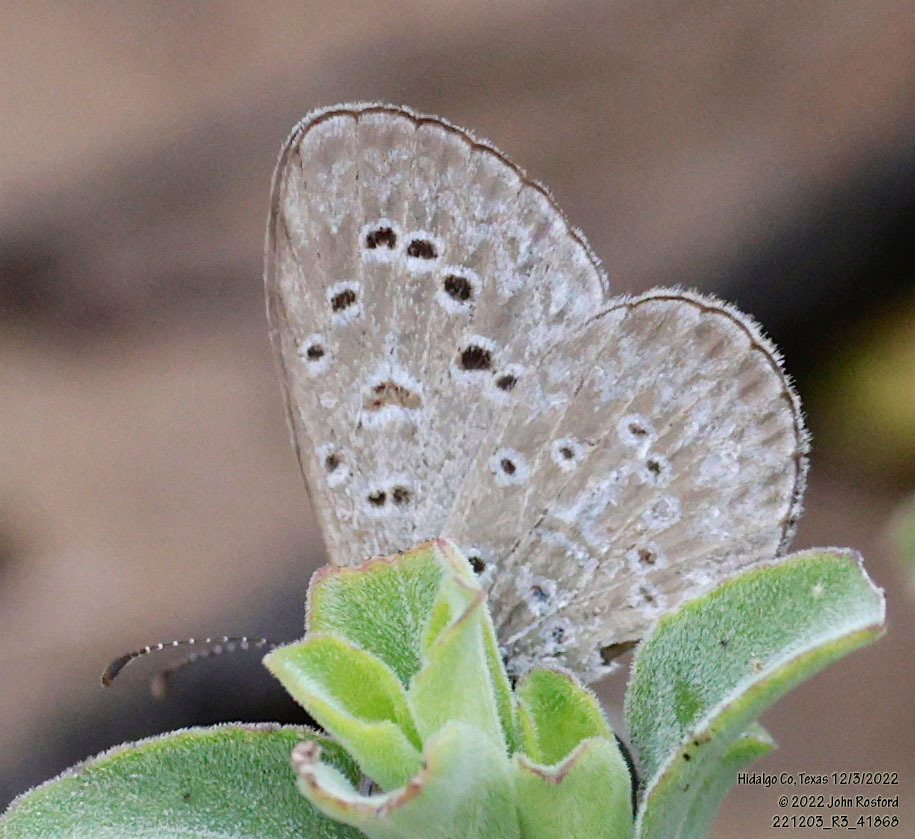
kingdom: Animalia
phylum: Arthropoda
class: Insecta
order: Lepidoptera
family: Lycaenidae
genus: Lycaena
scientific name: Lycaena cyna
